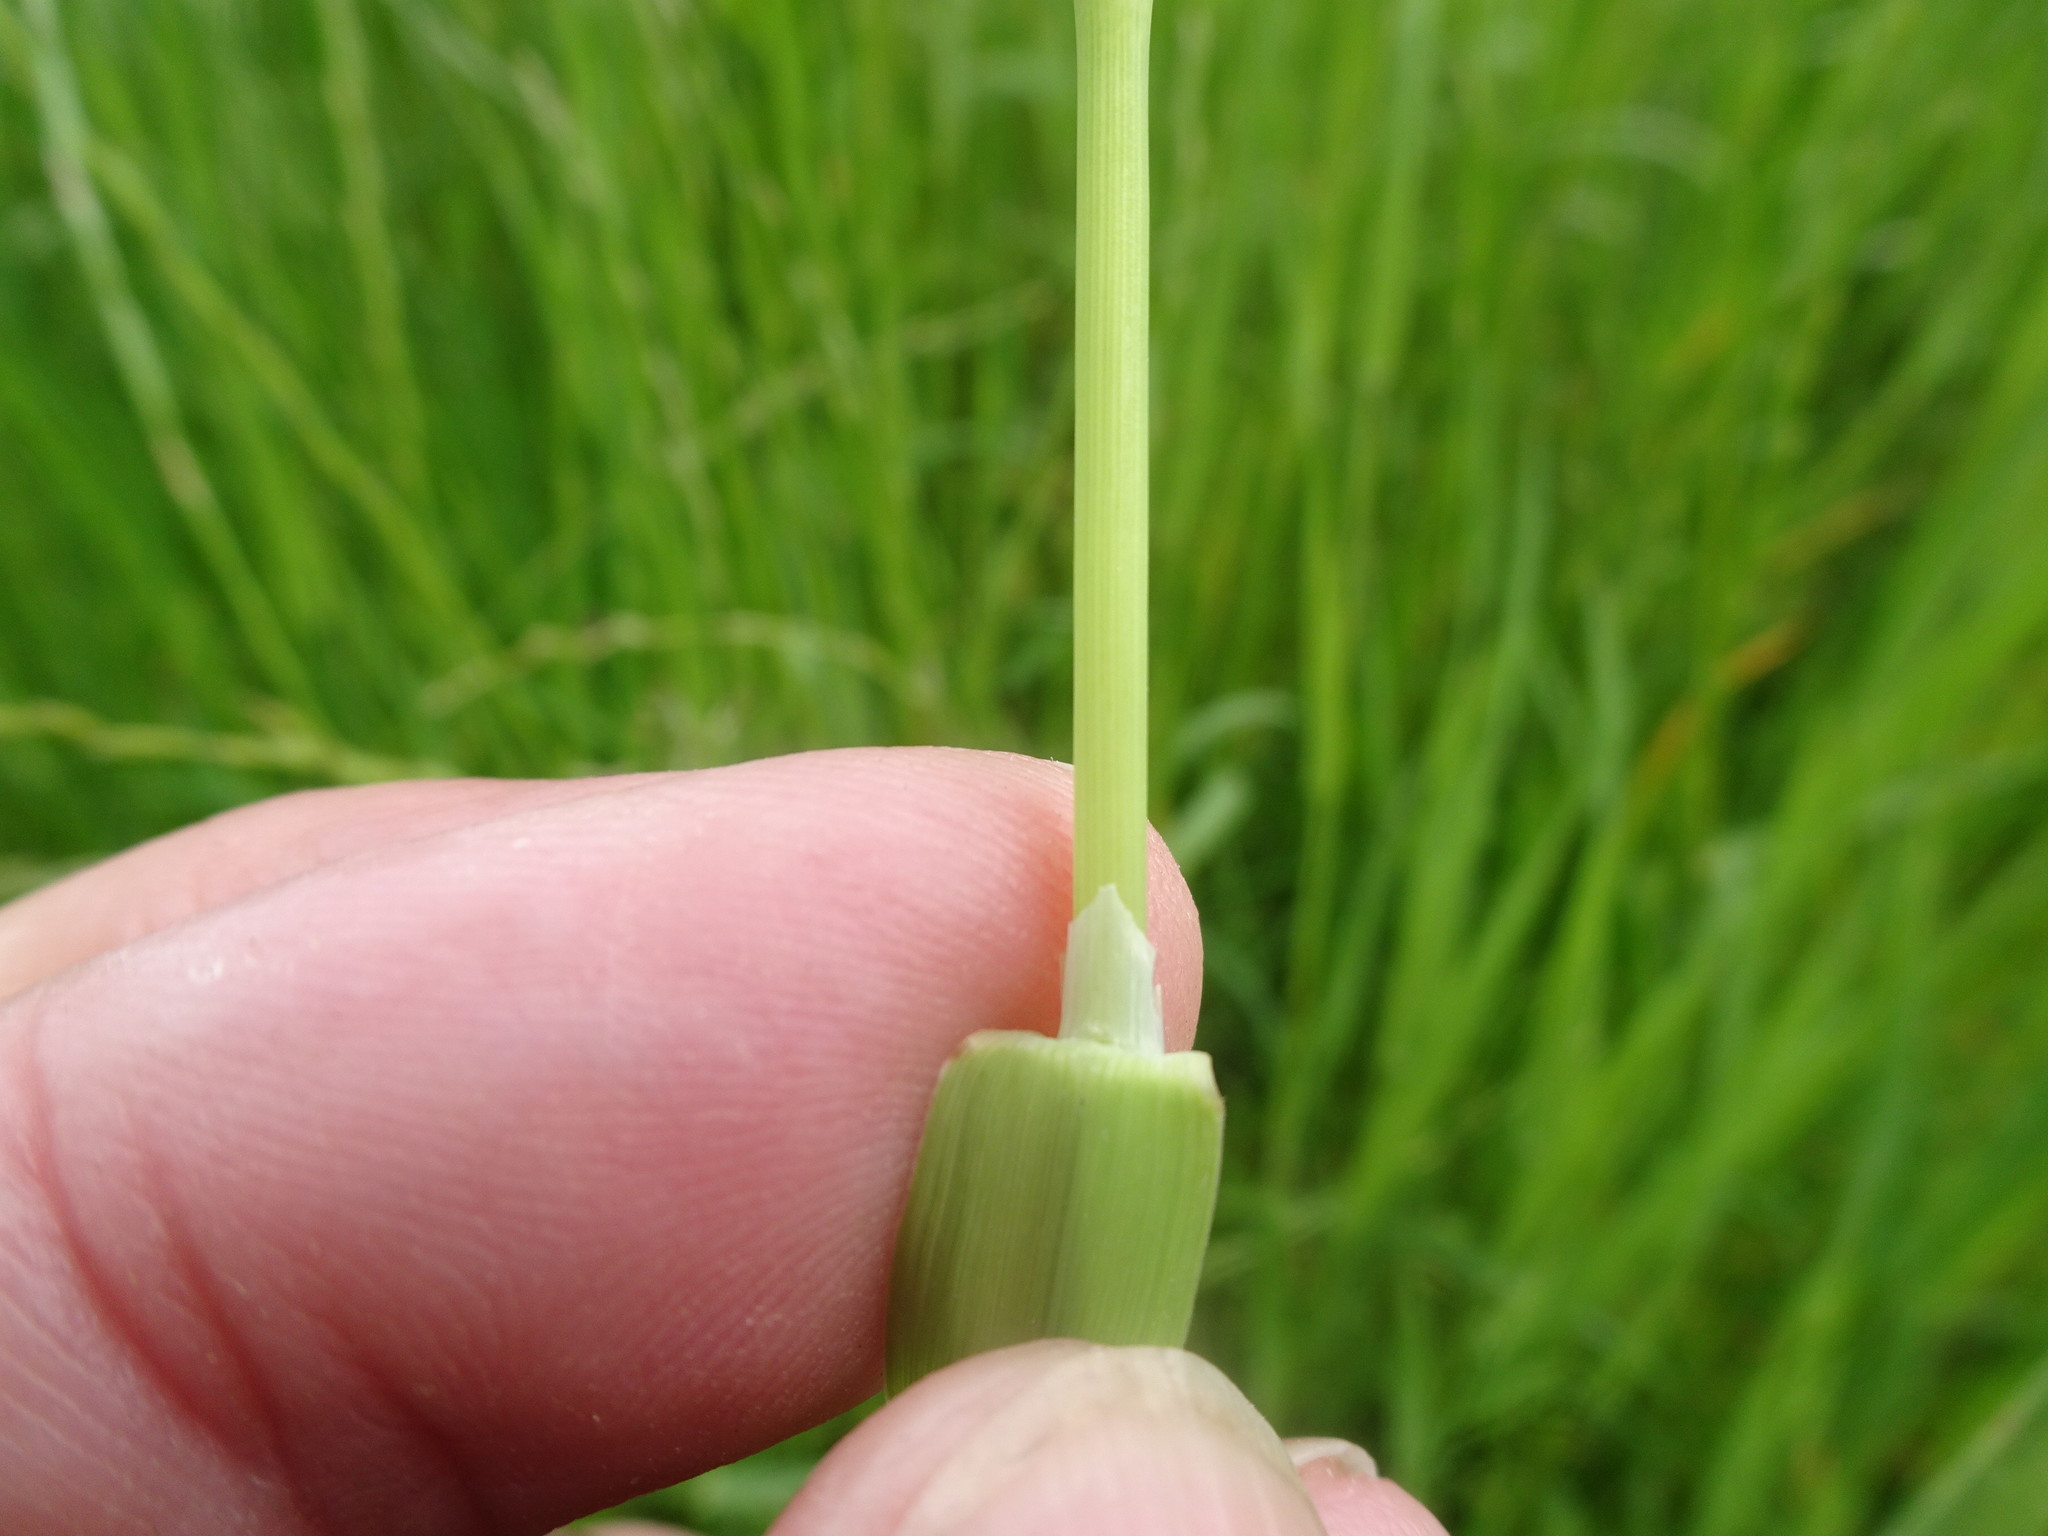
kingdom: Plantae
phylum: Tracheophyta
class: Liliopsida
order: Poales
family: Poaceae
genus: Phleum
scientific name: Phleum pratense
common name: Timothy grass
